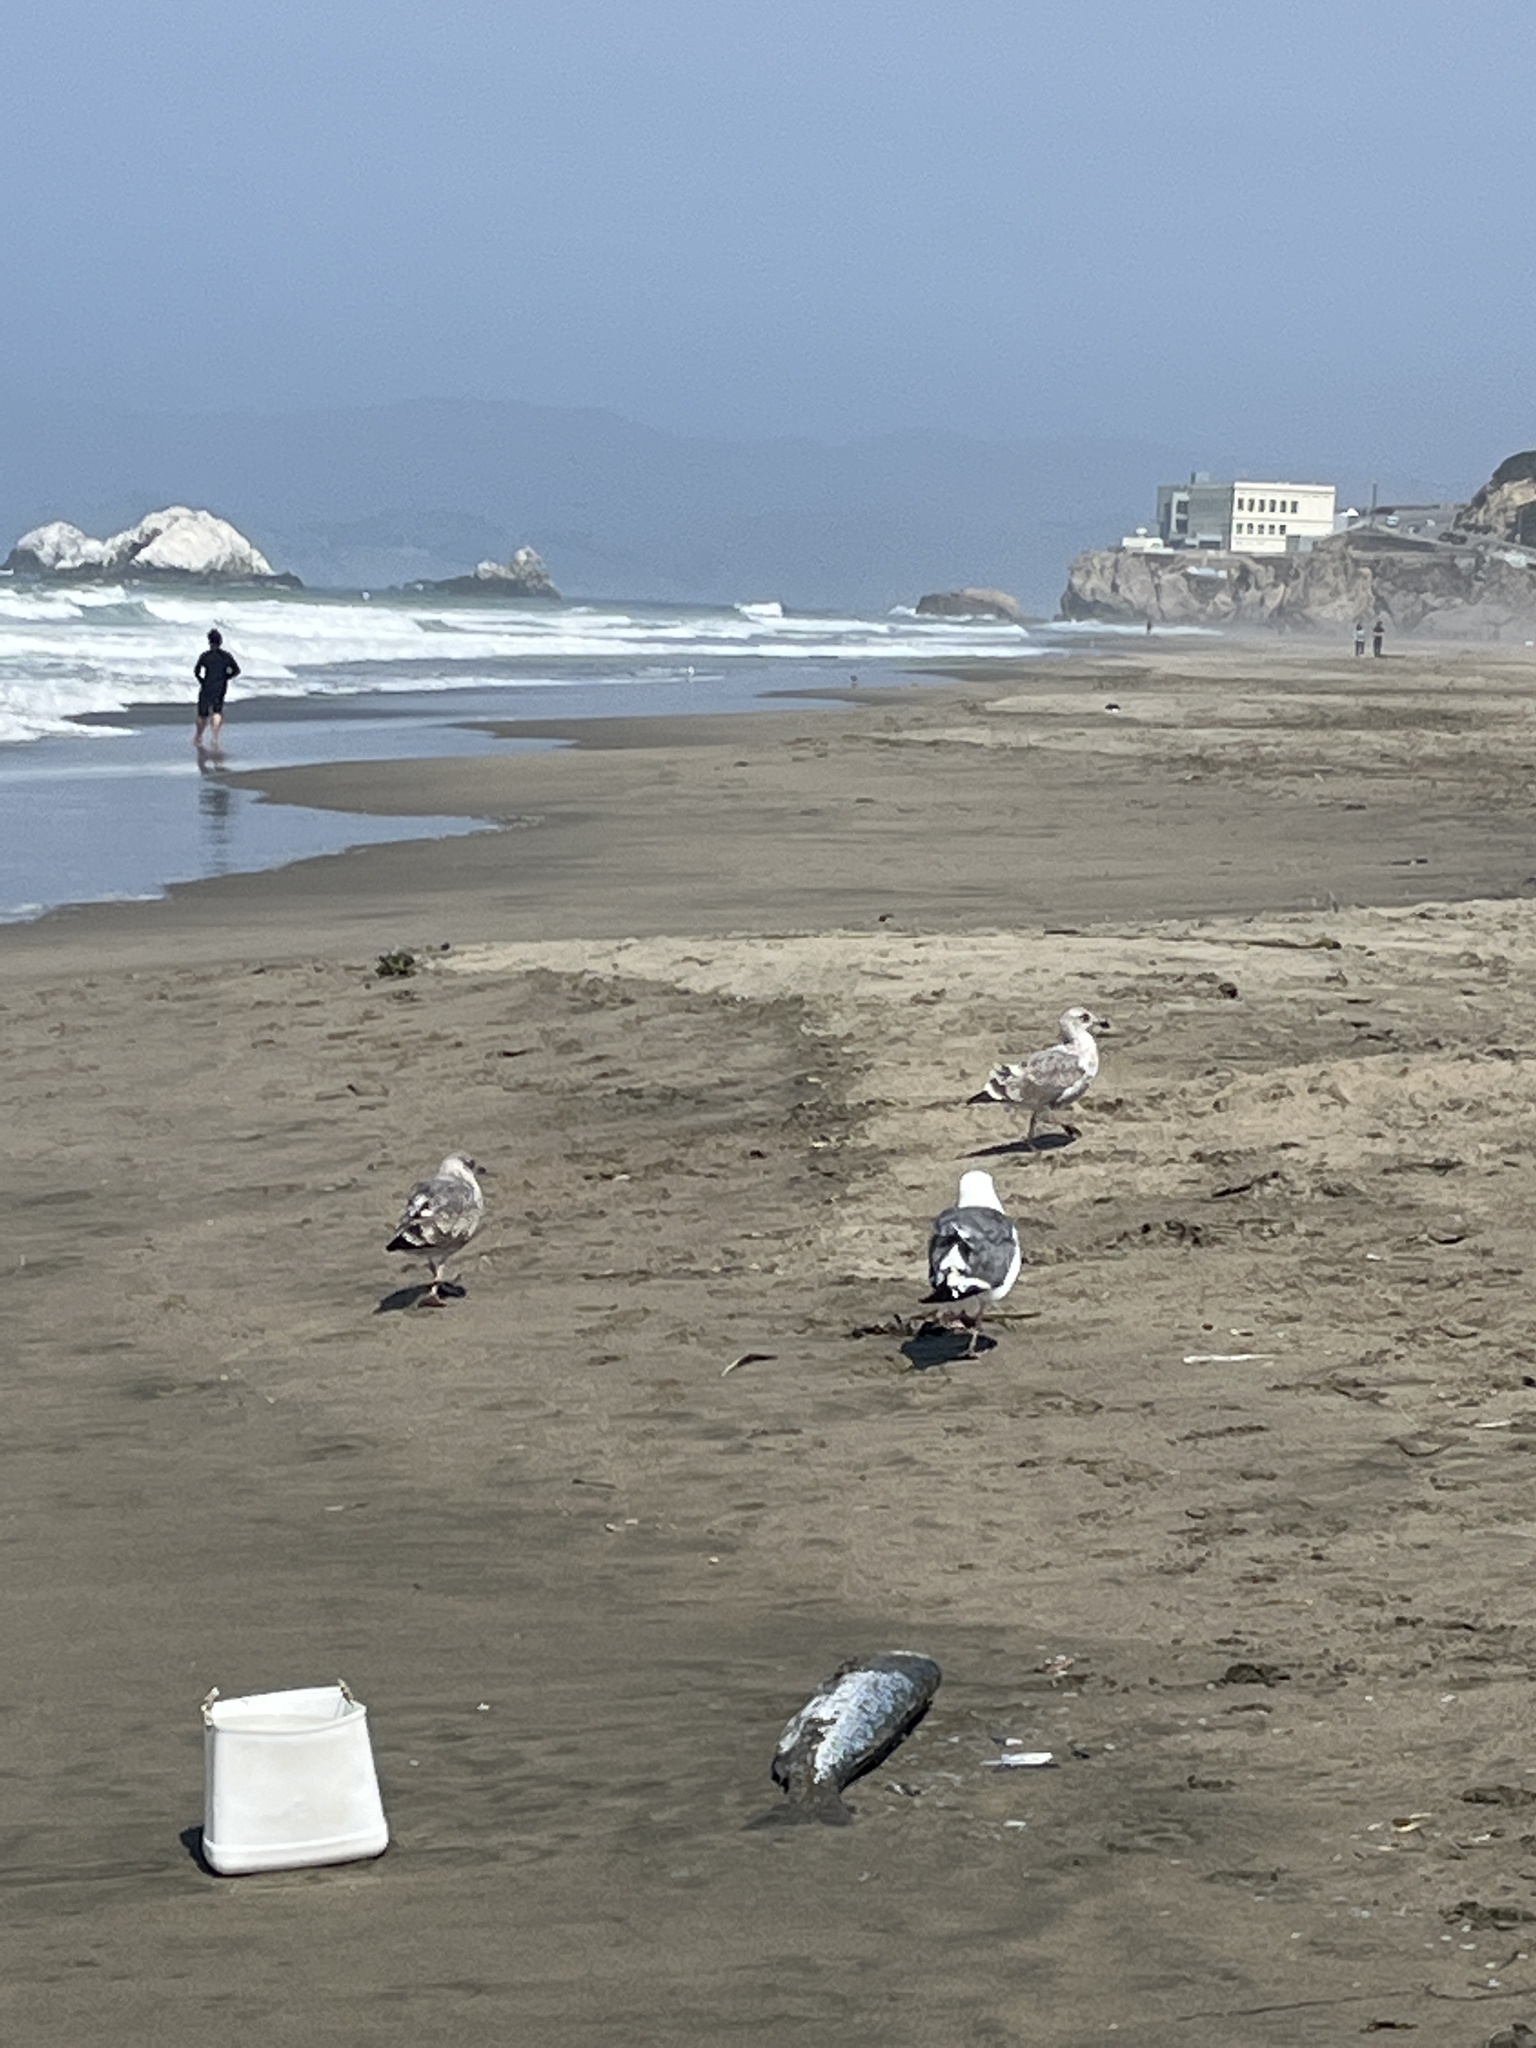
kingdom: Animalia
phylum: Chordata
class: Aves
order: Charadriiformes
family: Laridae
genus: Larus
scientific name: Larus occidentalis
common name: Western gull
